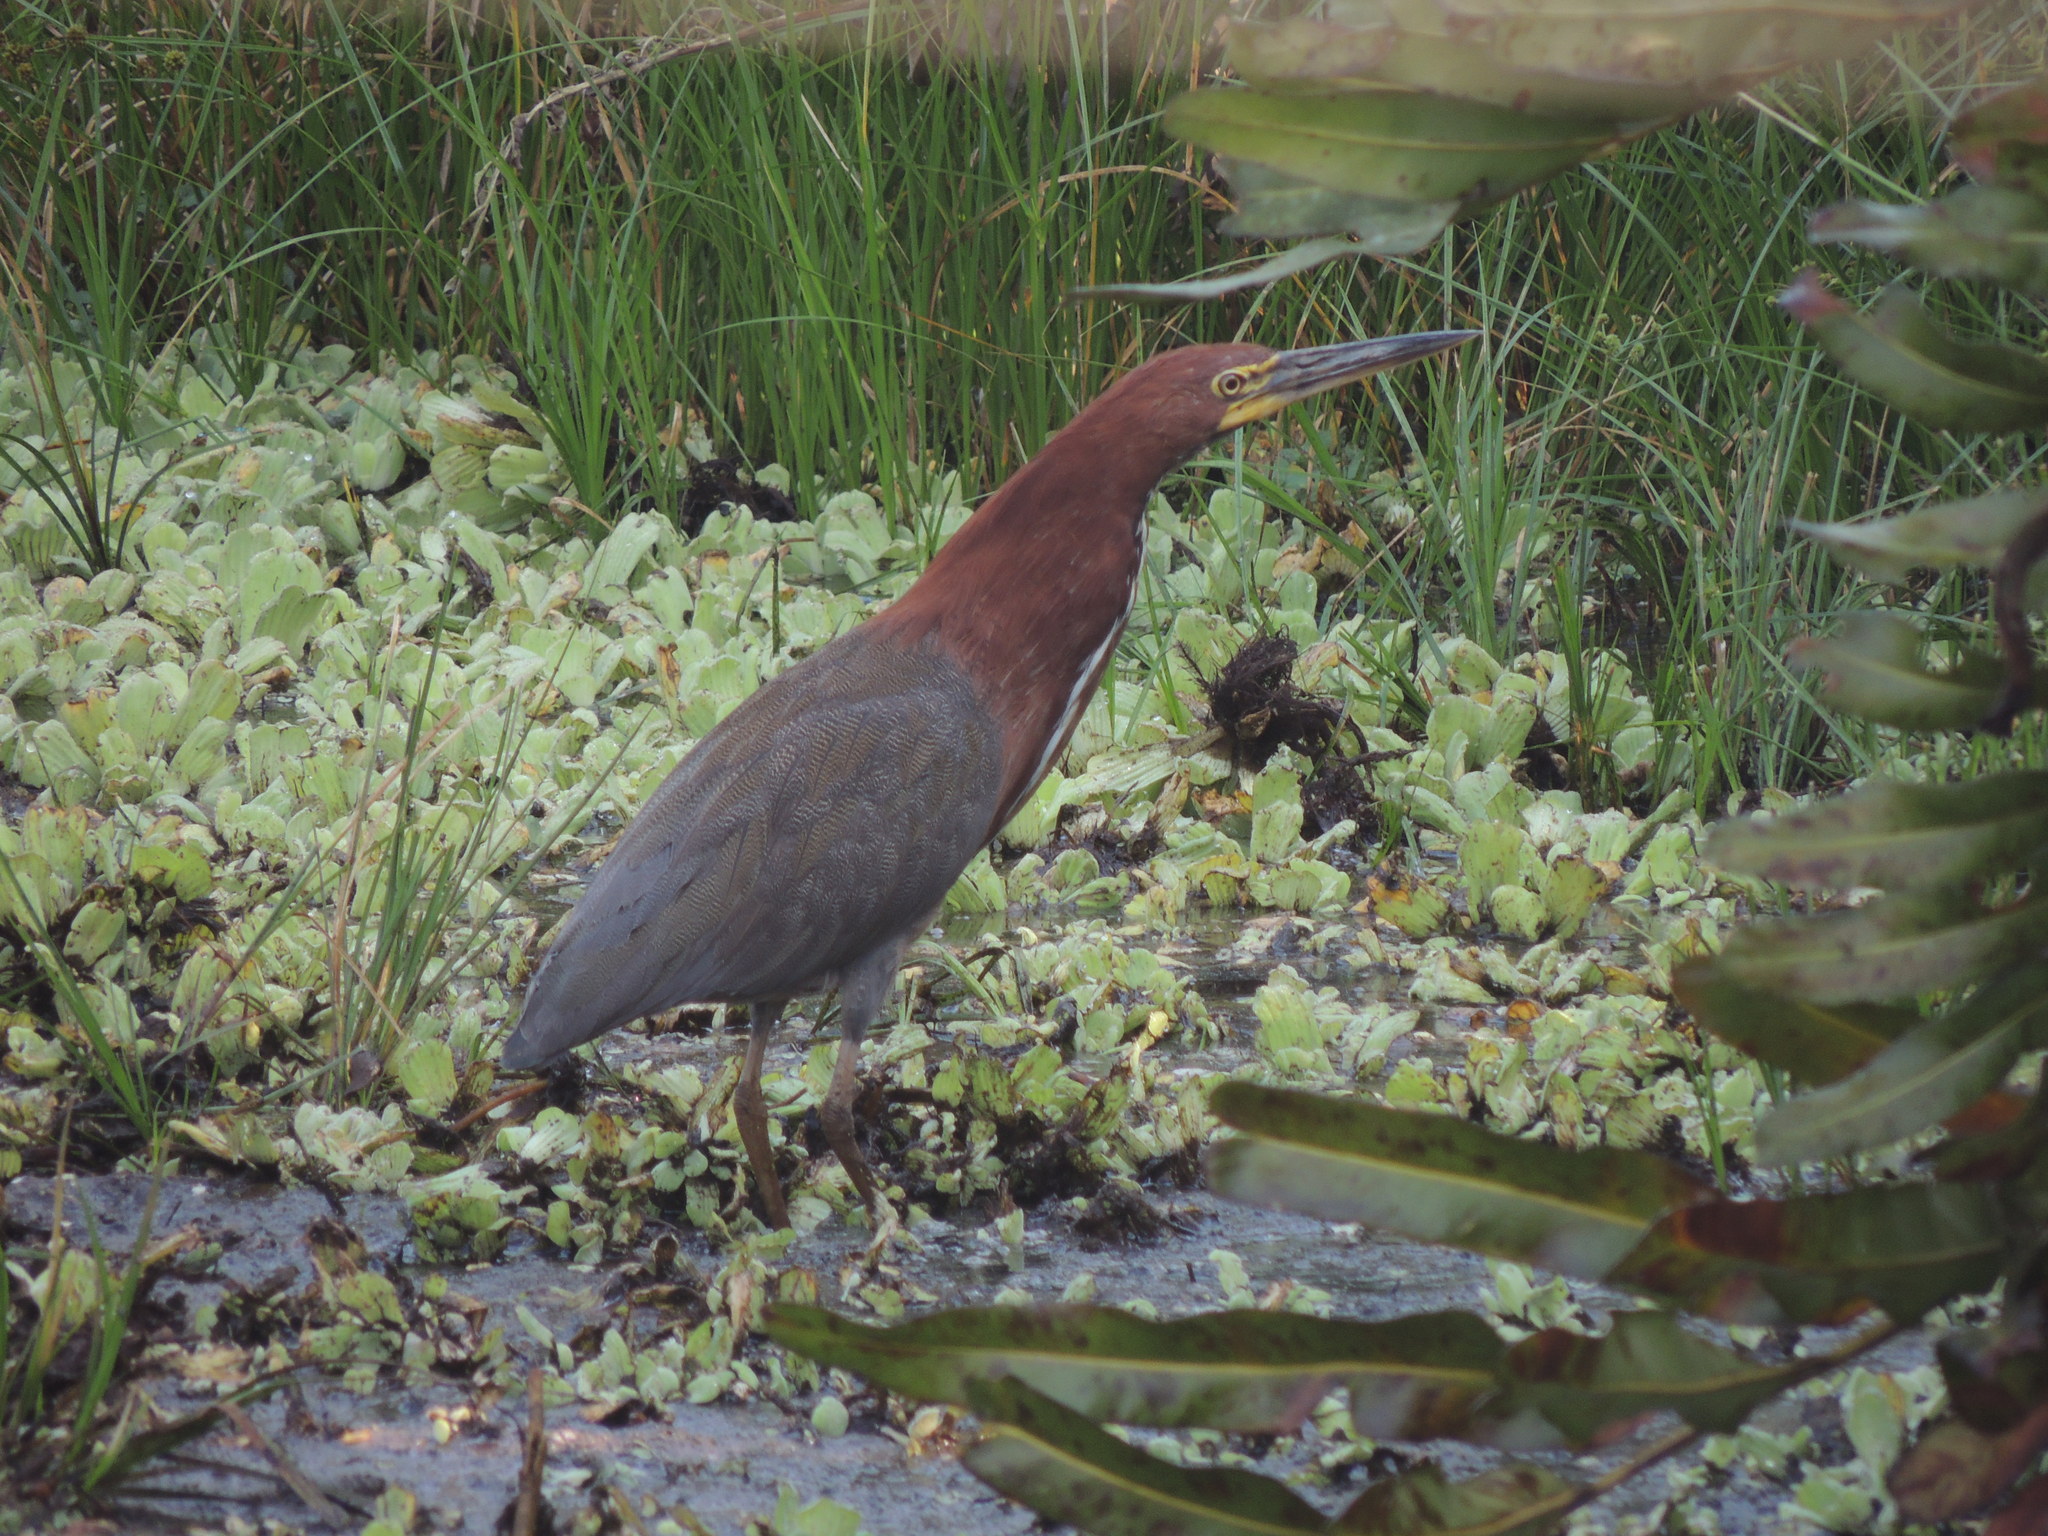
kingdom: Animalia
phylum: Chordata
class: Aves
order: Pelecaniformes
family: Ardeidae
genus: Tigrisoma
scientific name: Tigrisoma lineatum
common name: Rufescent tiger-heron
